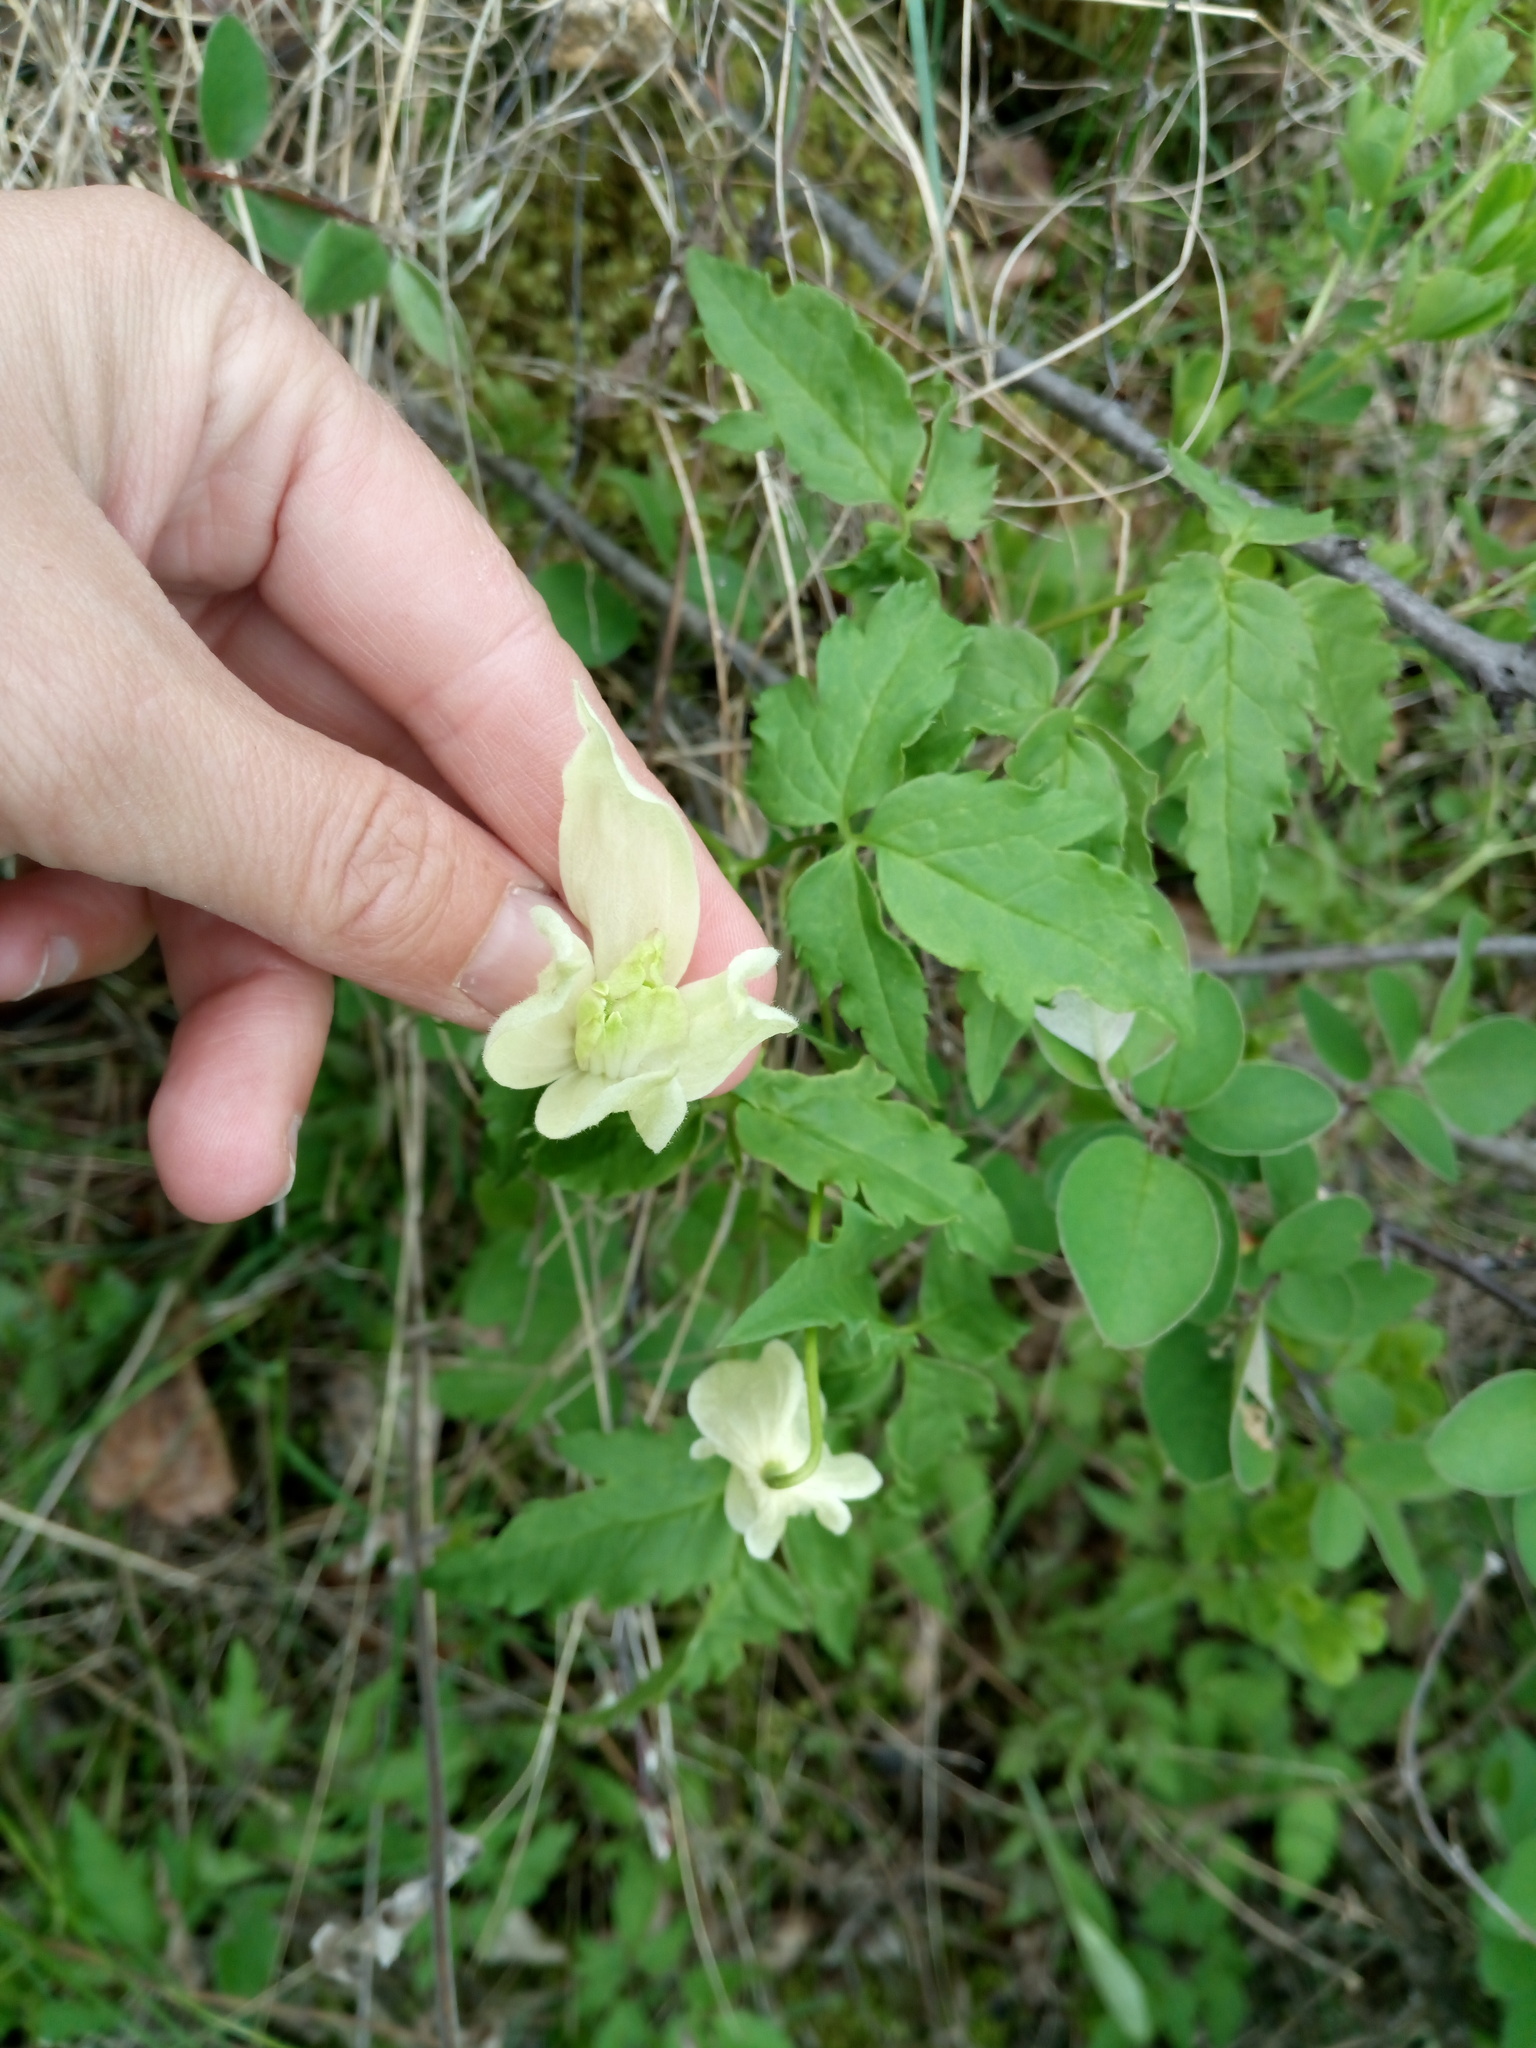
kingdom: Plantae
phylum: Tracheophyta
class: Magnoliopsida
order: Ranunculales
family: Ranunculaceae
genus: Clematis
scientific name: Clematis sibirica
